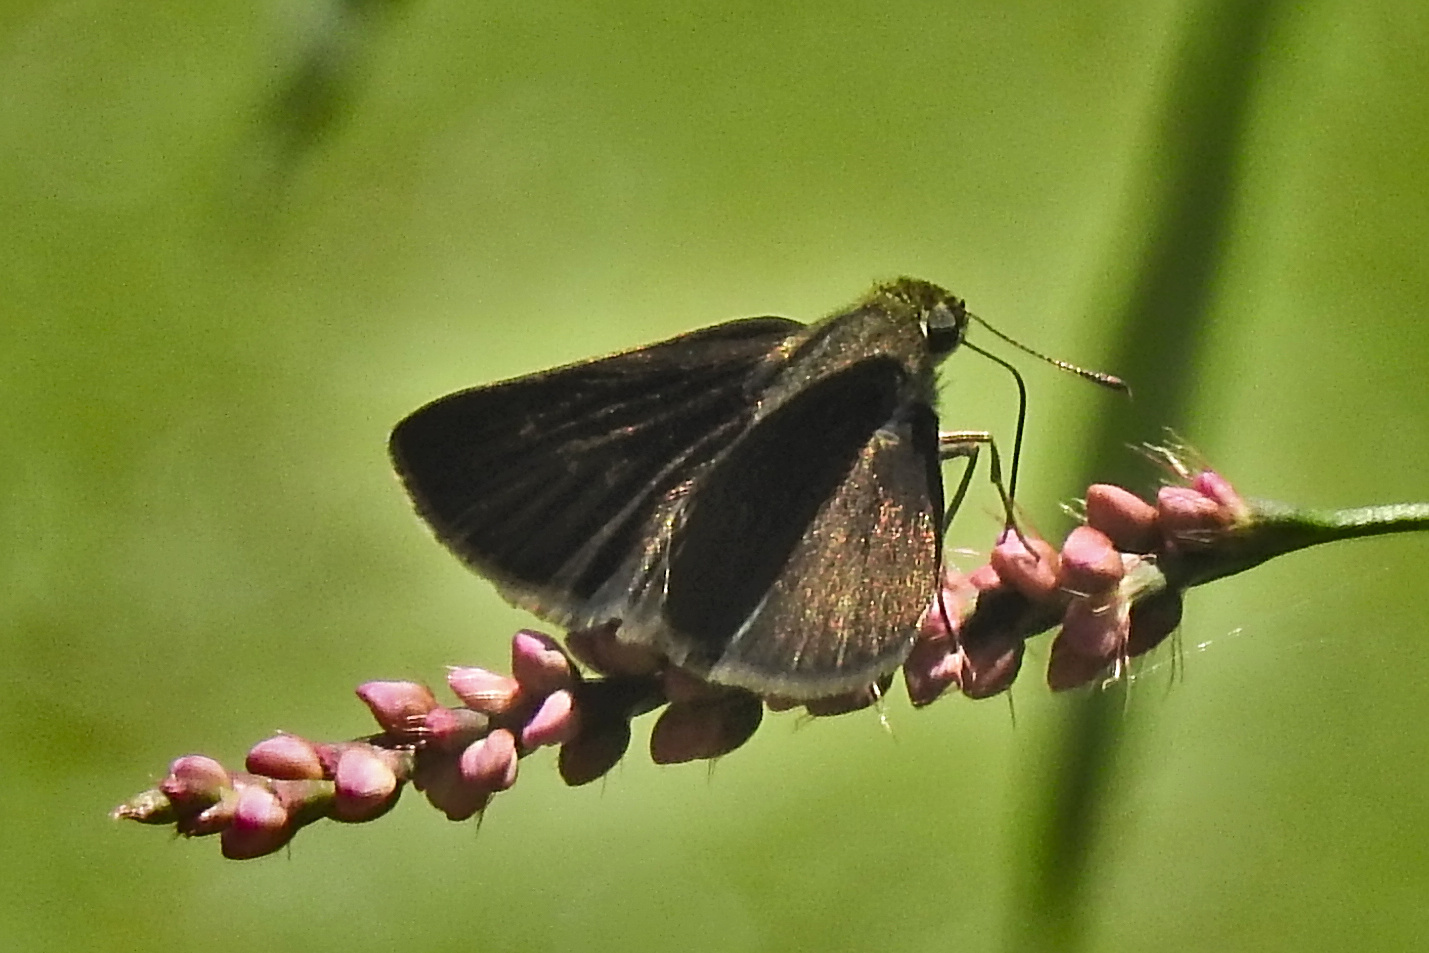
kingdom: Animalia
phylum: Arthropoda
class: Insecta
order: Lepidoptera
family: Hesperiidae
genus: Euphyes
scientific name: Euphyes vestris
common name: Dun skipper
